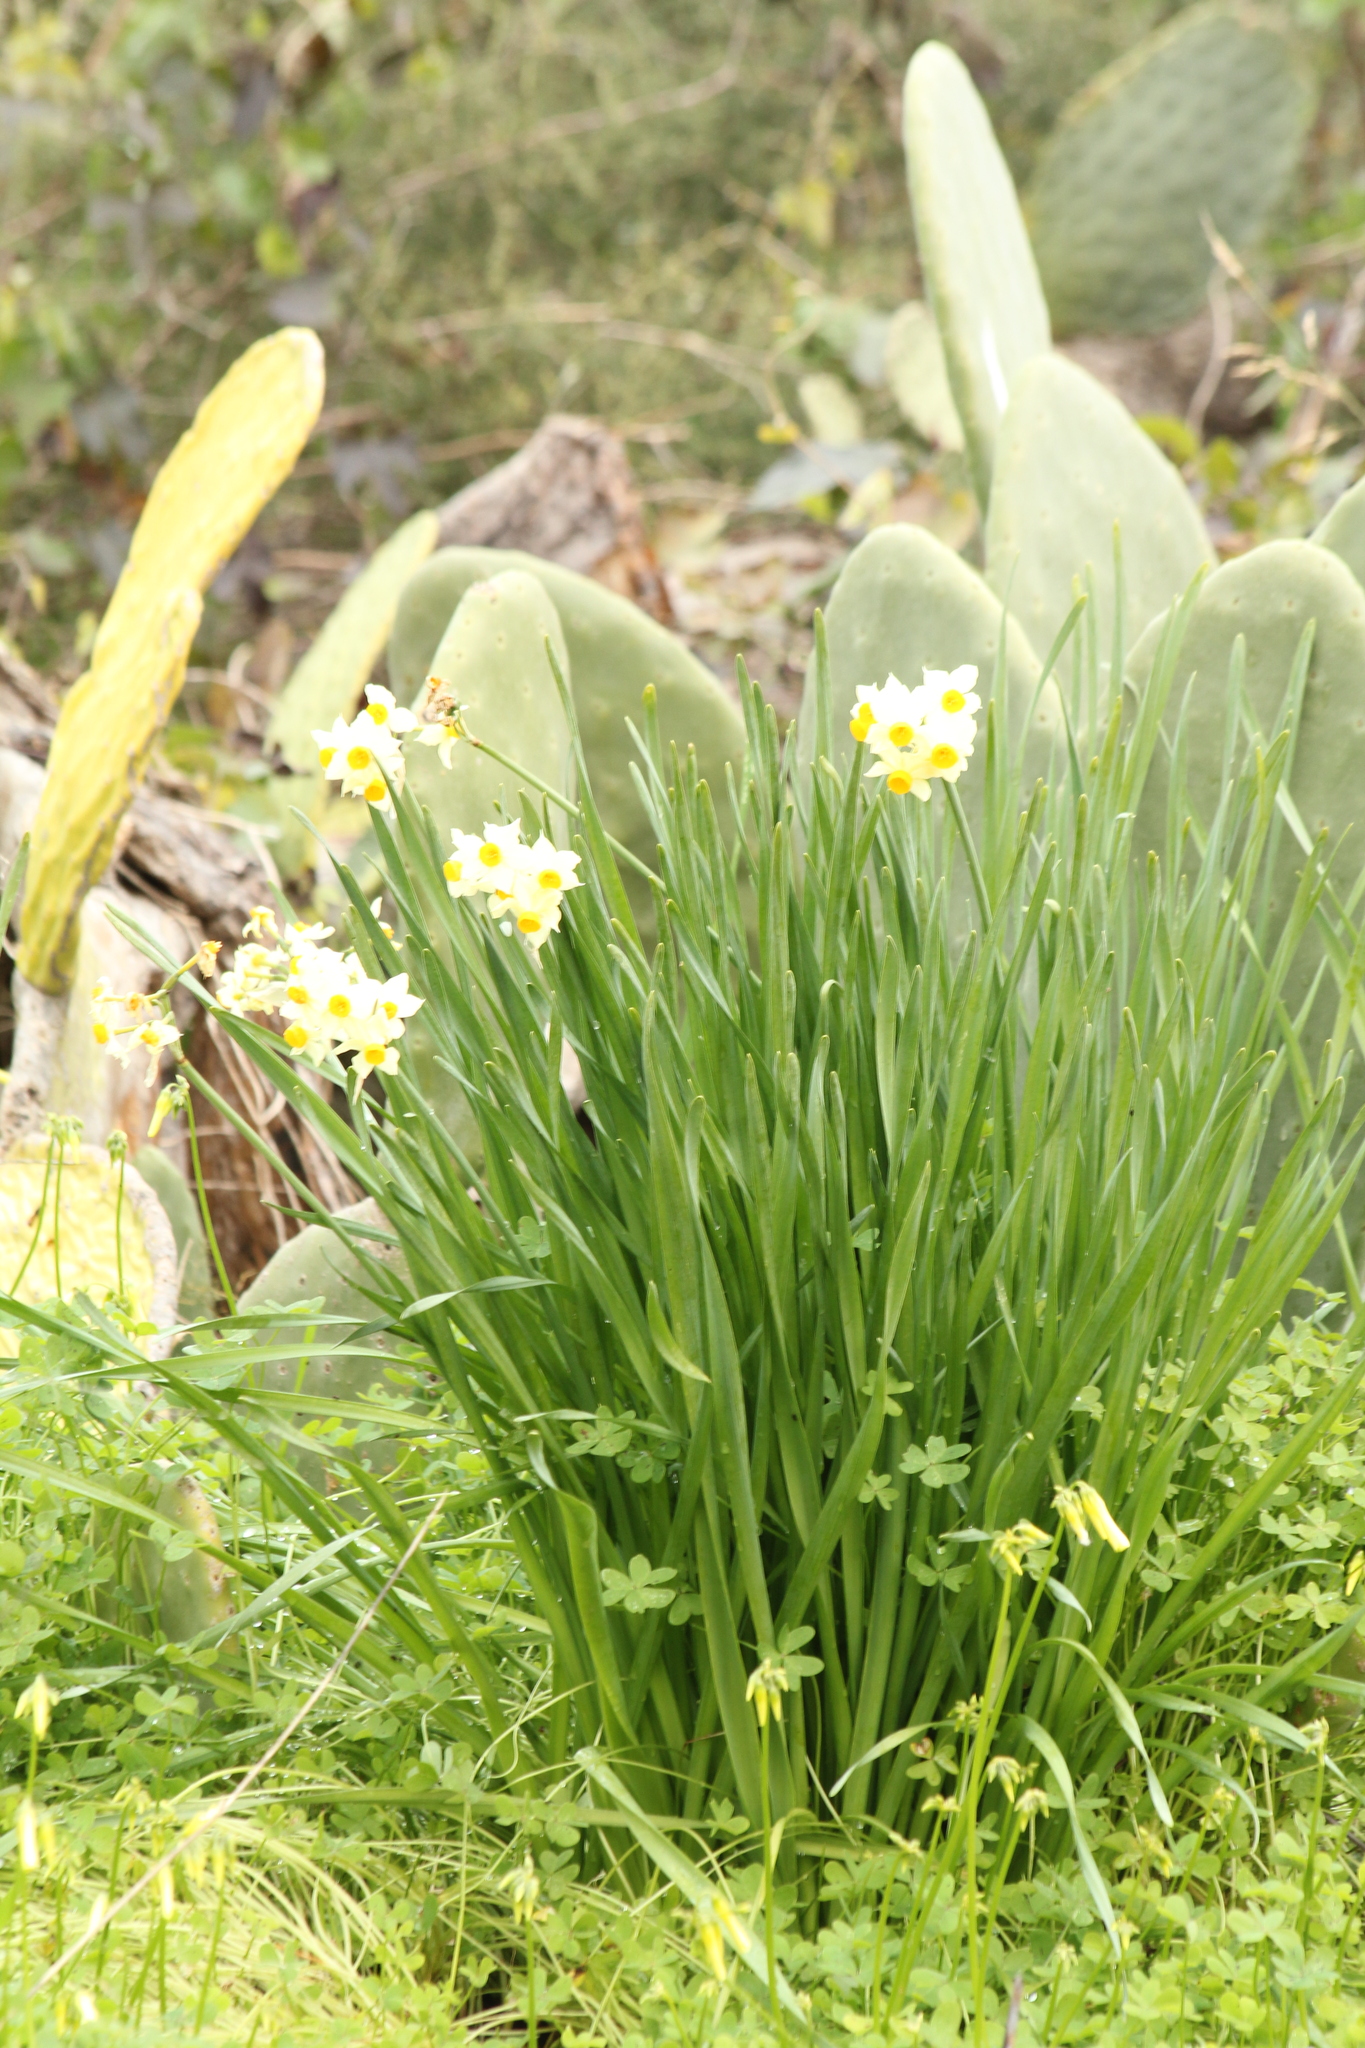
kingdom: Plantae
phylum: Tracheophyta
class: Liliopsida
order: Asparagales
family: Amaryllidaceae
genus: Narcissus
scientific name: Narcissus tazetta
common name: Bunch-flowered daffodil
